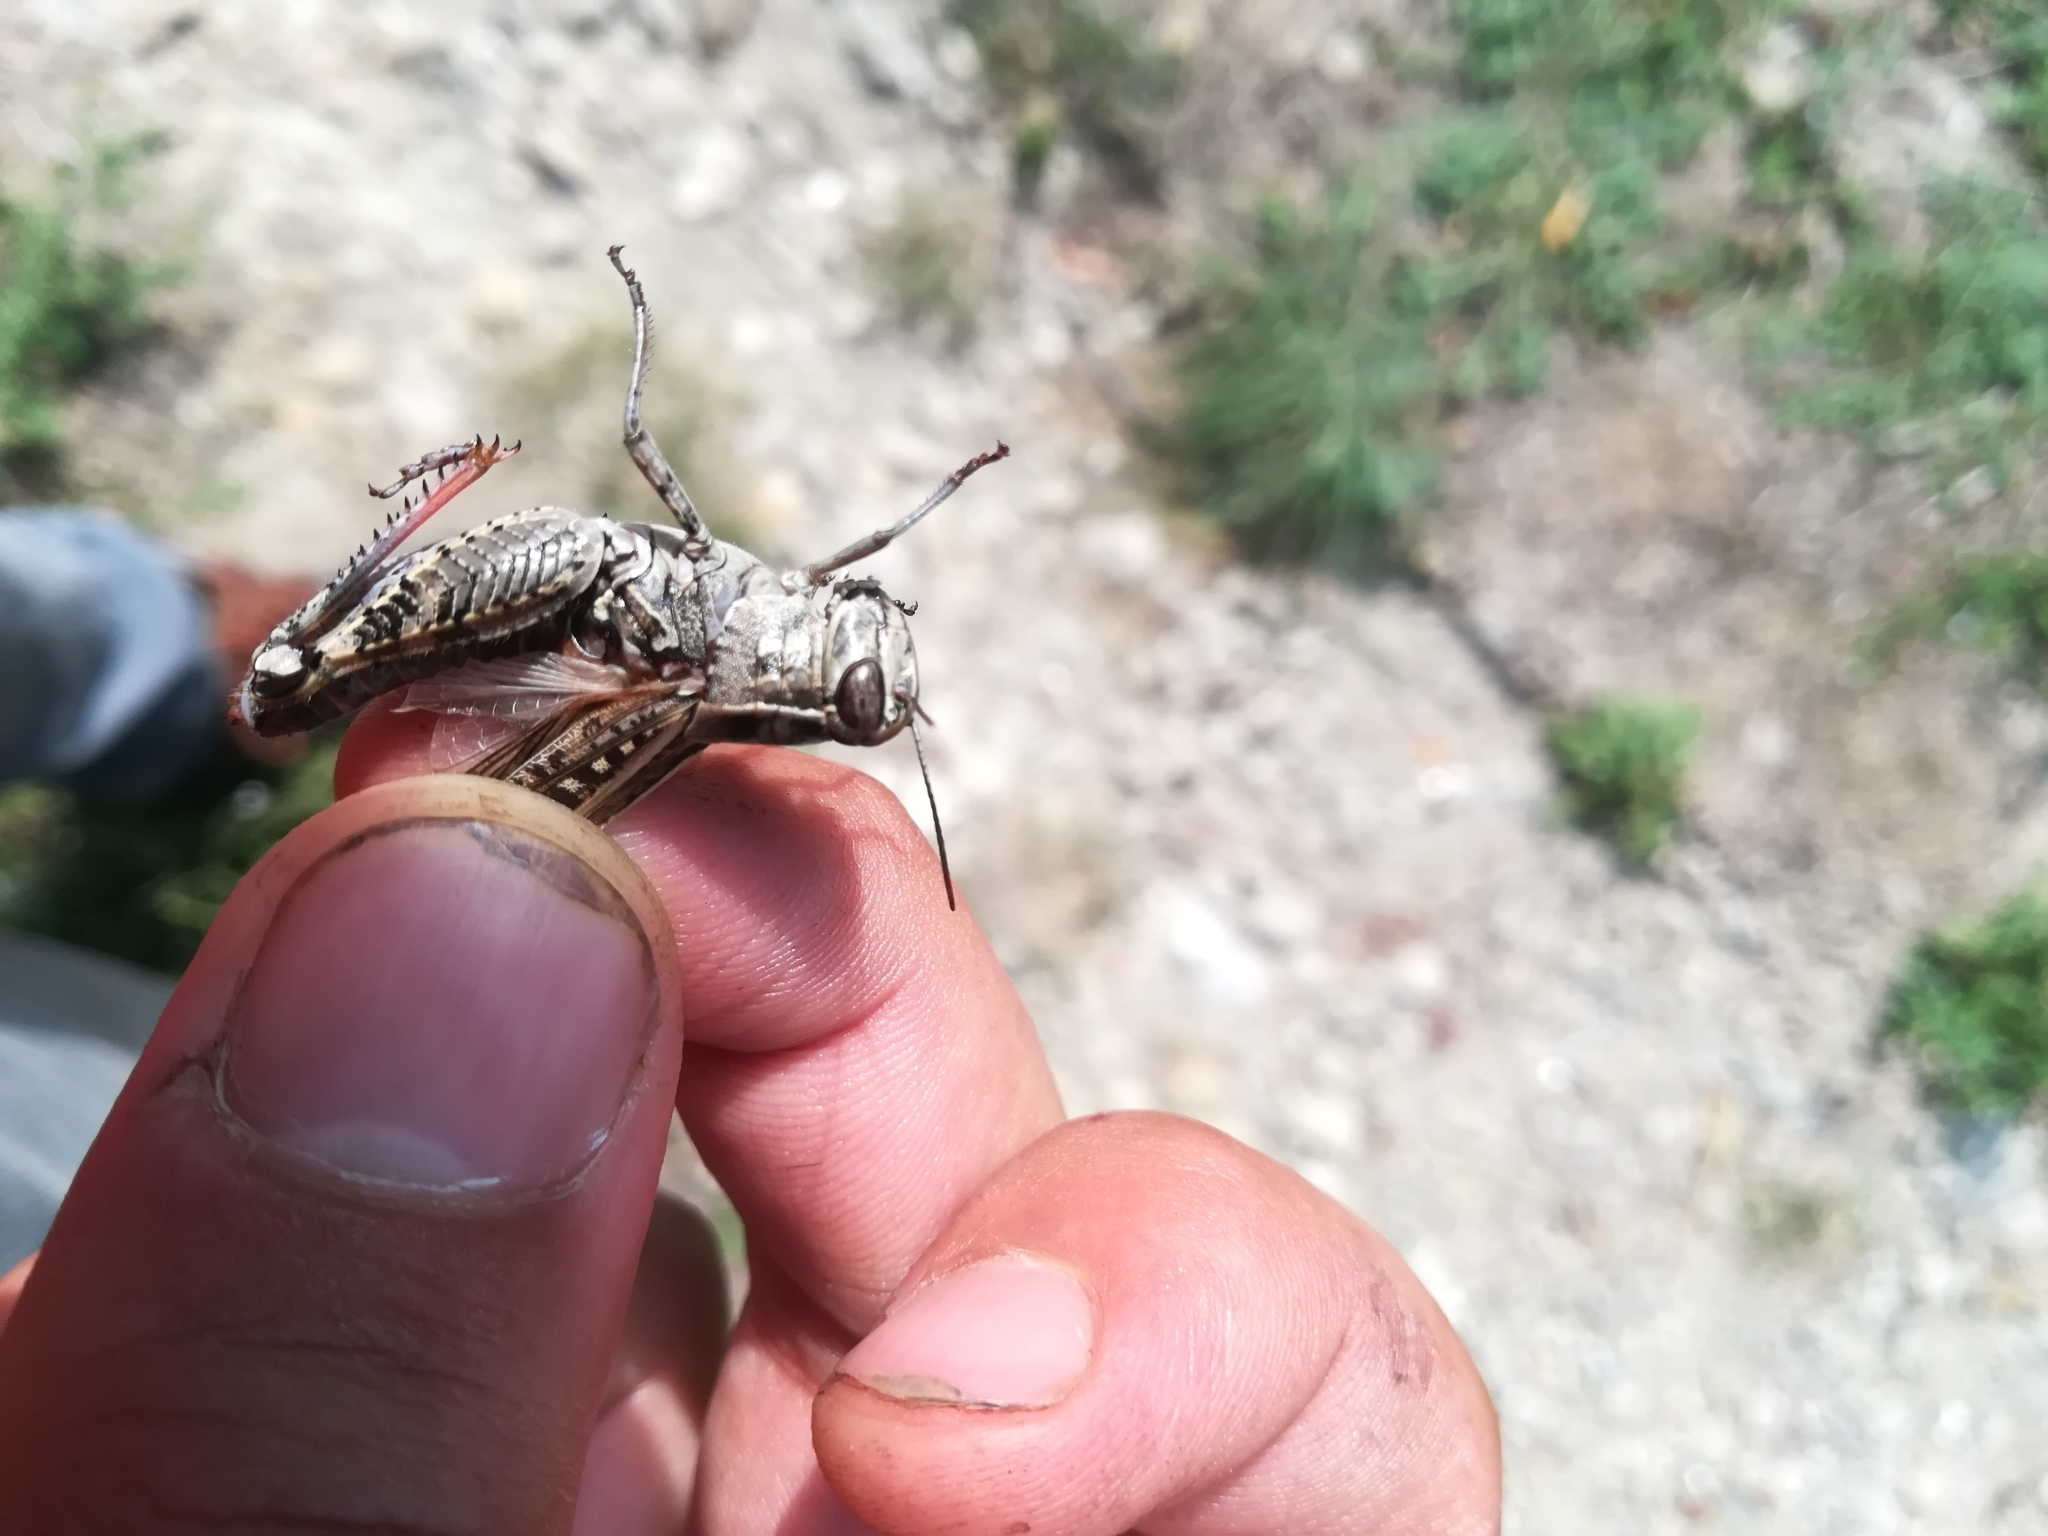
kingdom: Animalia
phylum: Arthropoda
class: Insecta
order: Orthoptera
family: Acrididae
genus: Calliptamus
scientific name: Calliptamus siciliae
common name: Pygmy pincer grasshopper
